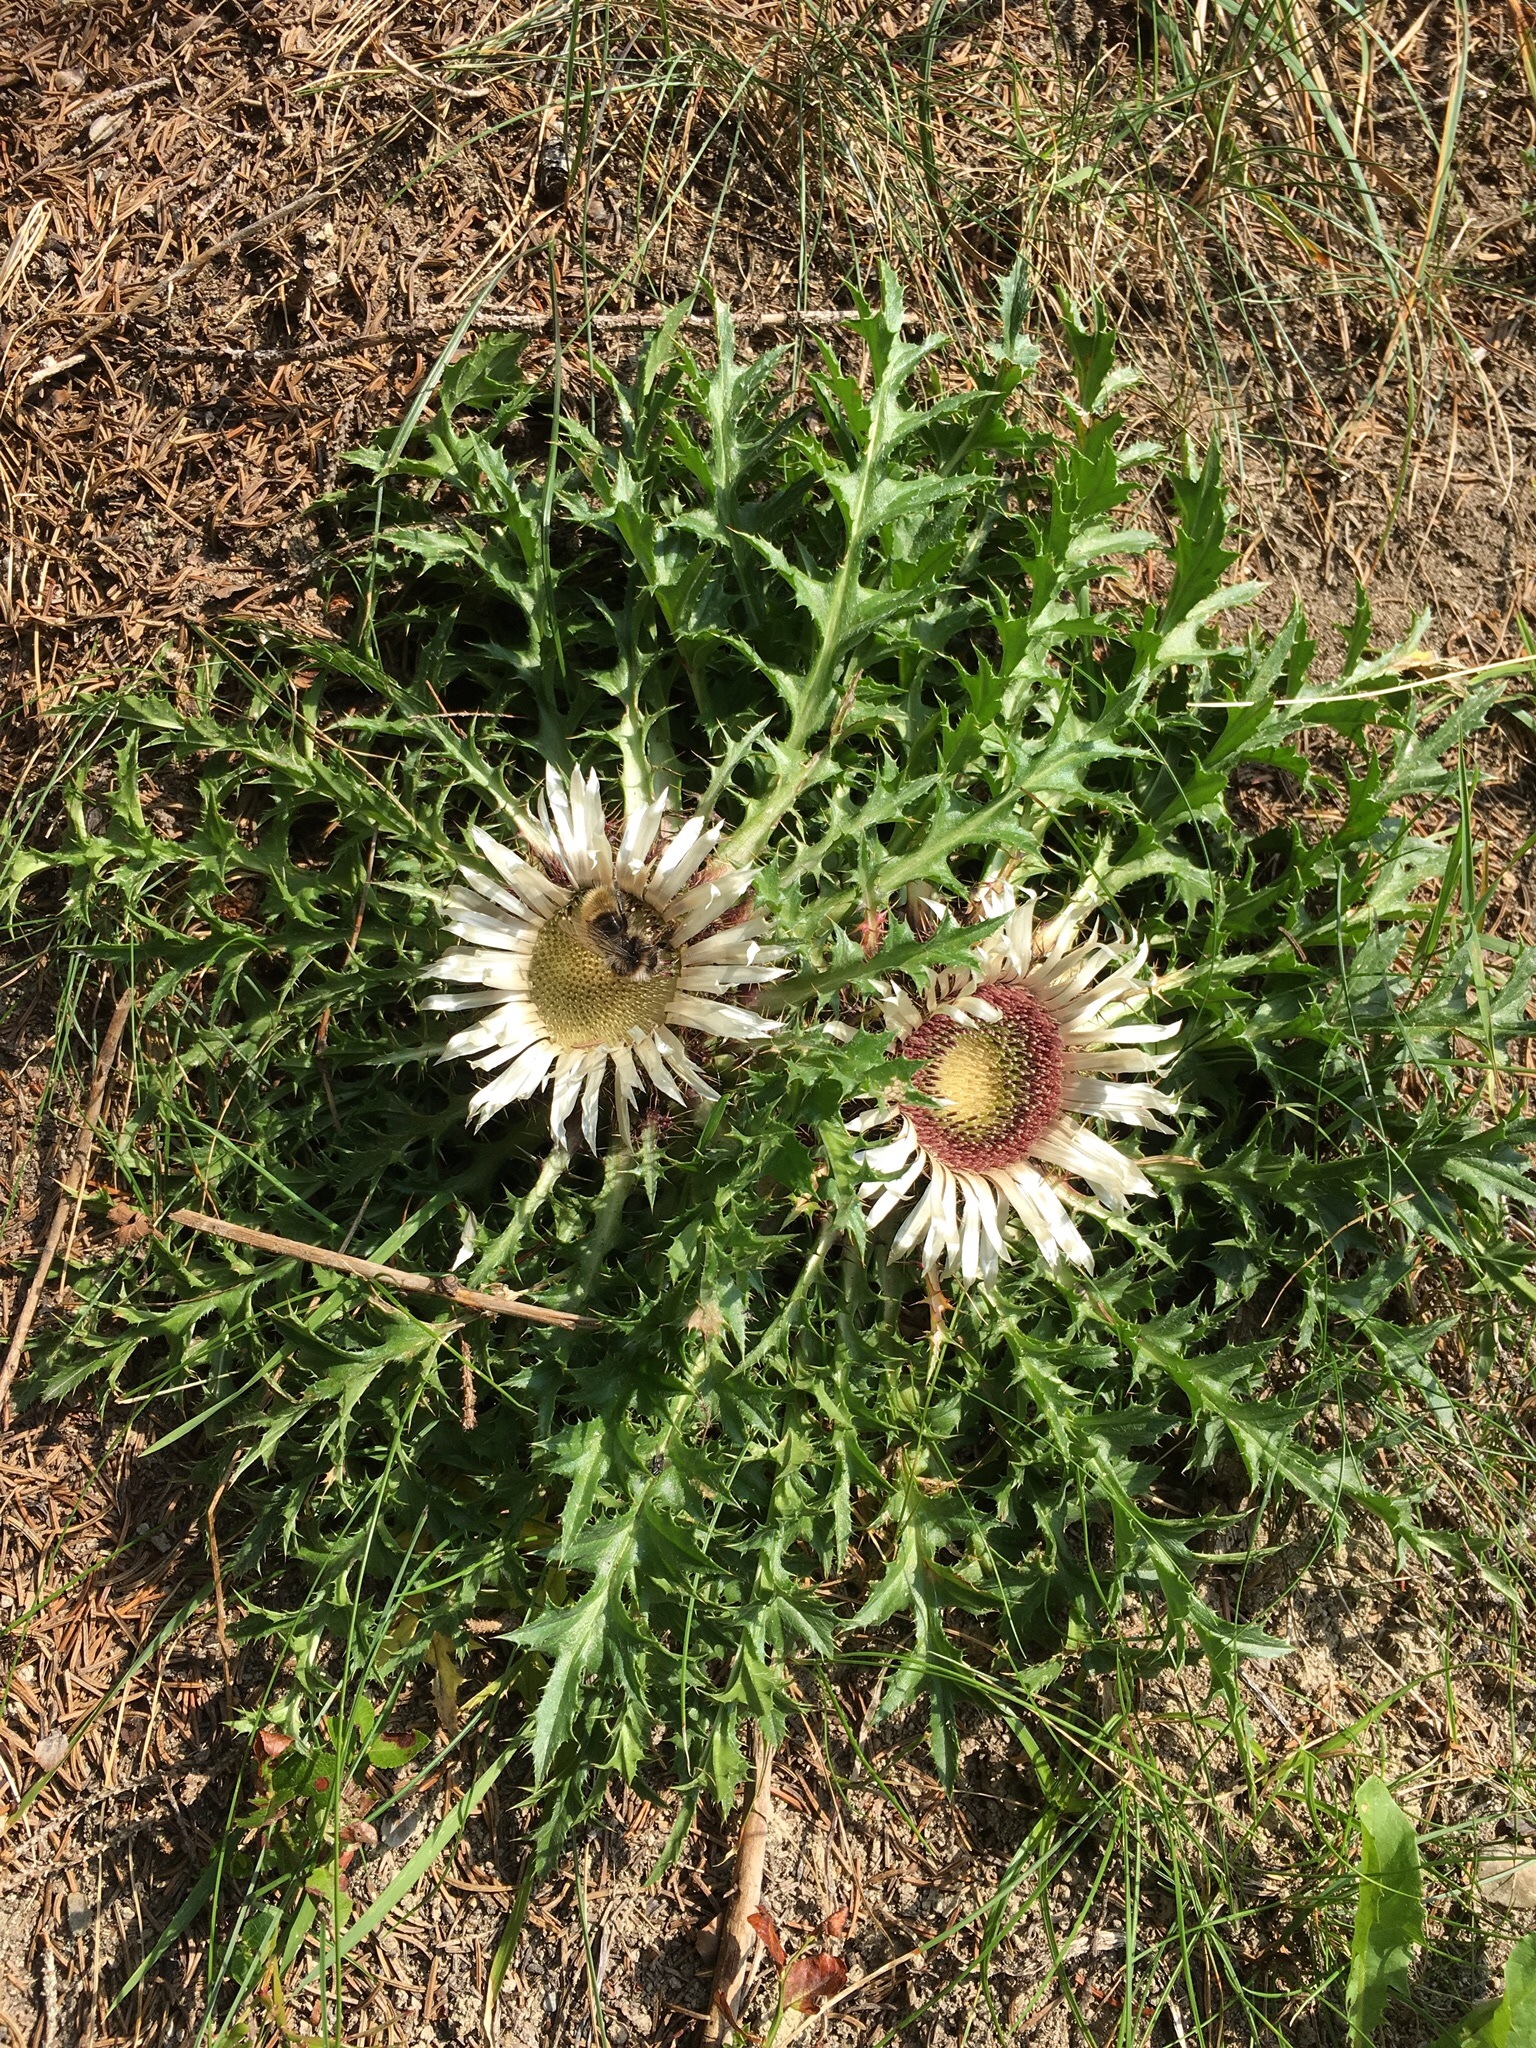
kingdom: Plantae
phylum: Tracheophyta
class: Magnoliopsida
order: Asterales
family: Asteraceae
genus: Carlina
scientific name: Carlina acaulis
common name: Stemless carline thistle
